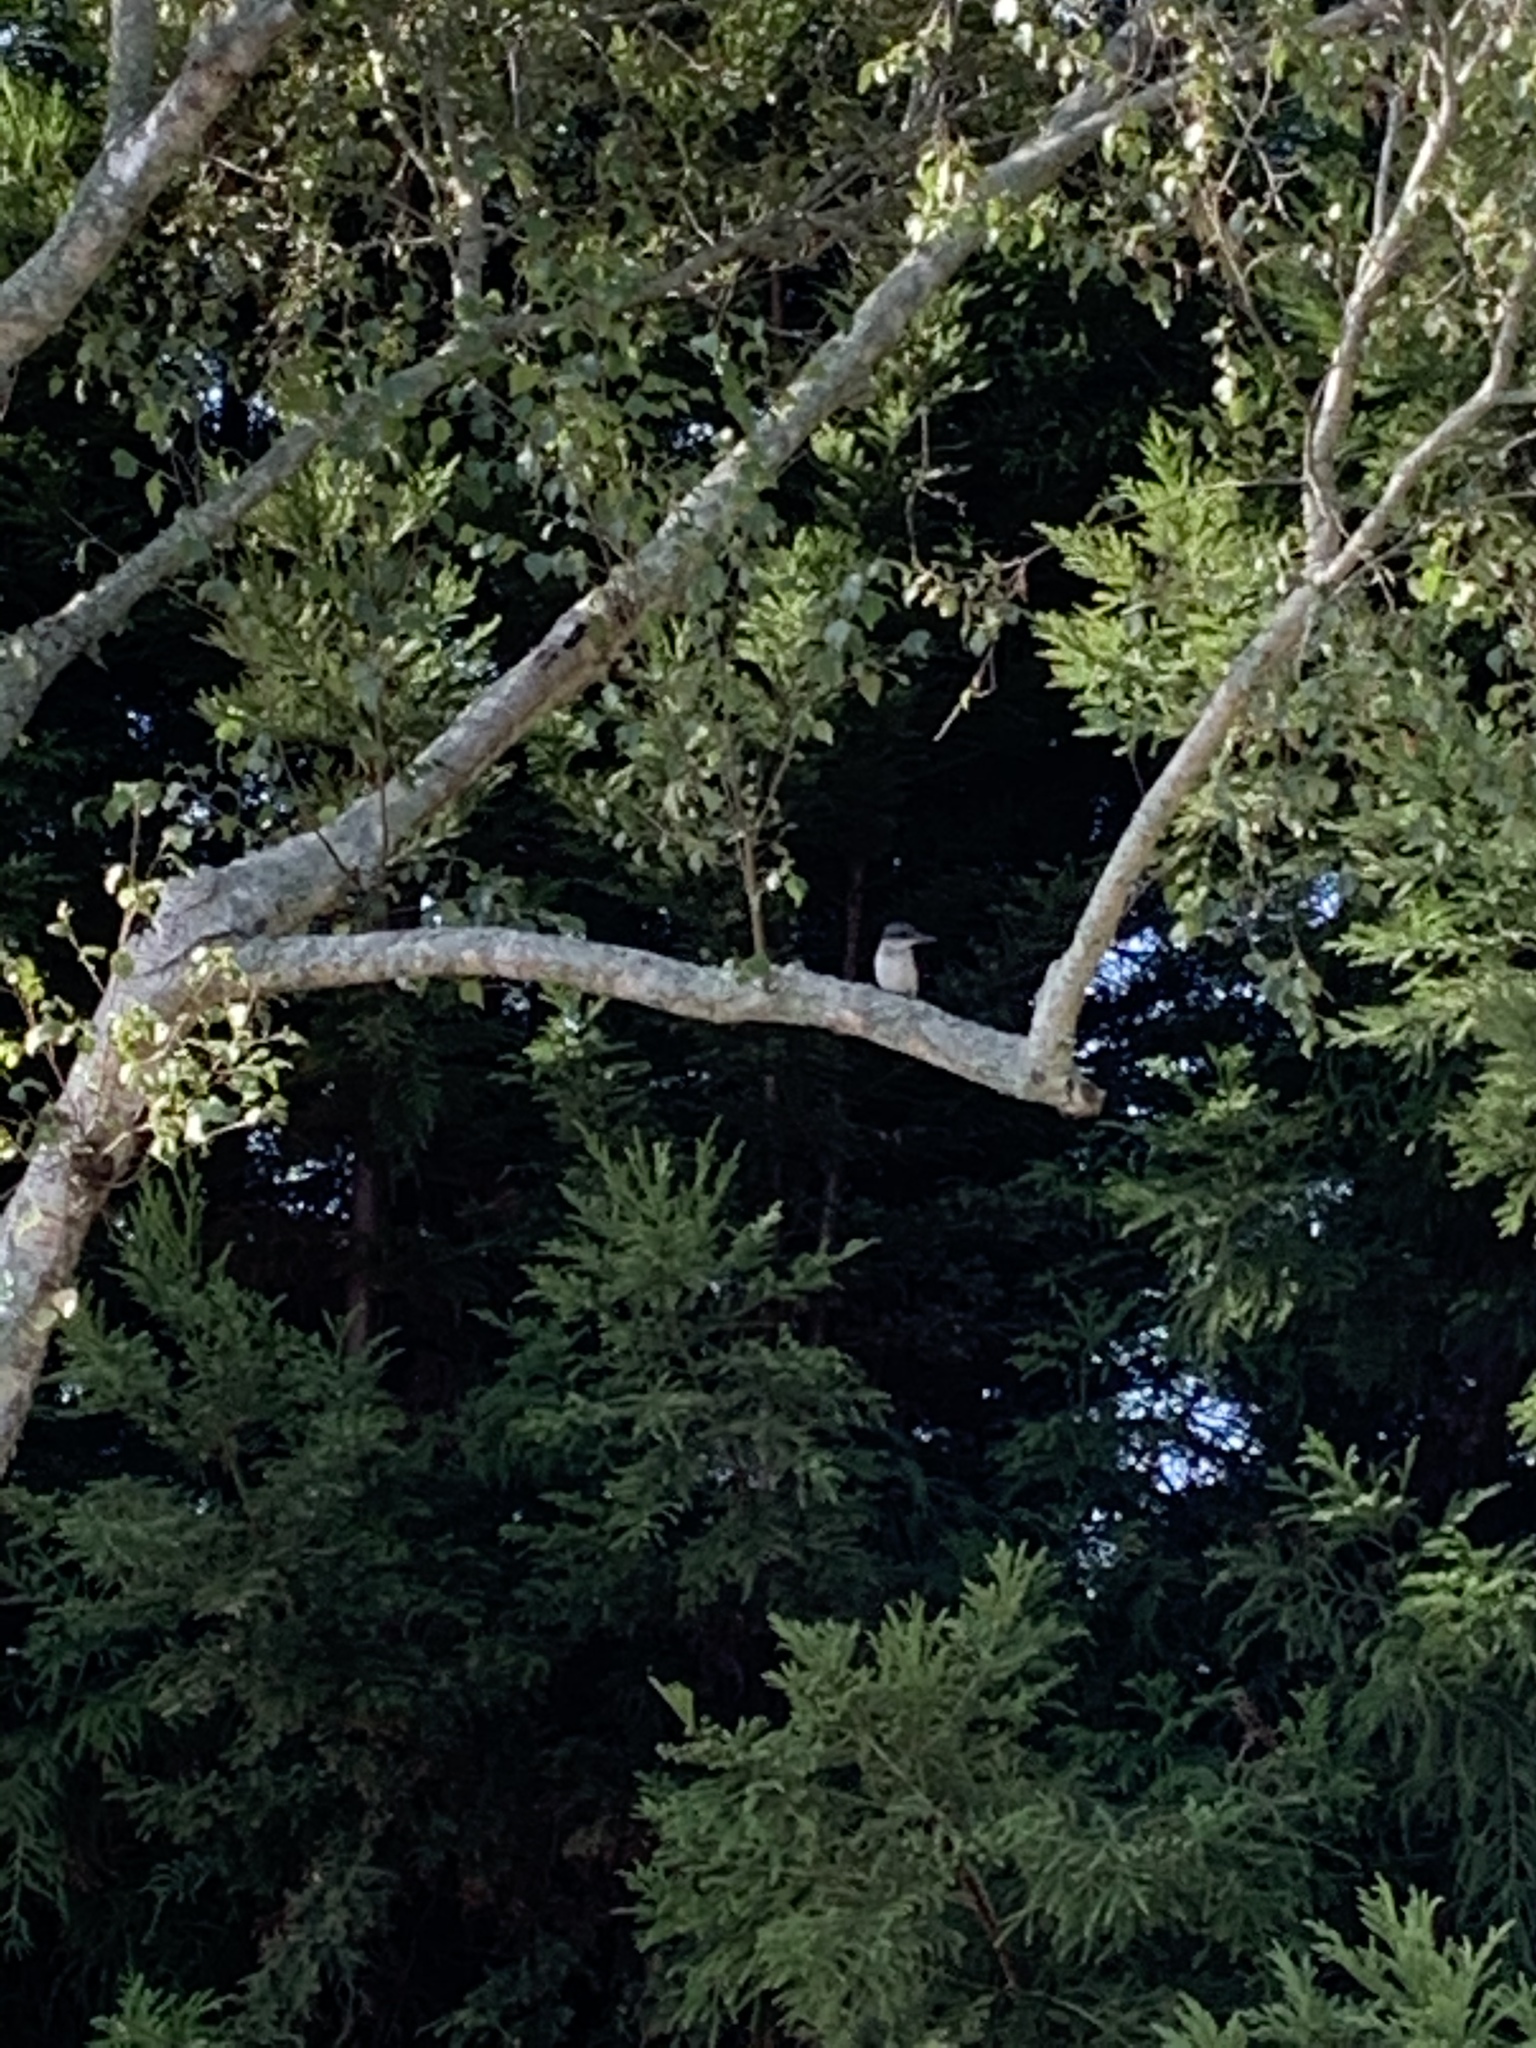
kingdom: Animalia
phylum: Chordata
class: Aves
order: Coraciiformes
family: Alcedinidae
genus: Todiramphus
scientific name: Todiramphus sanctus
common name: Sacred kingfisher
